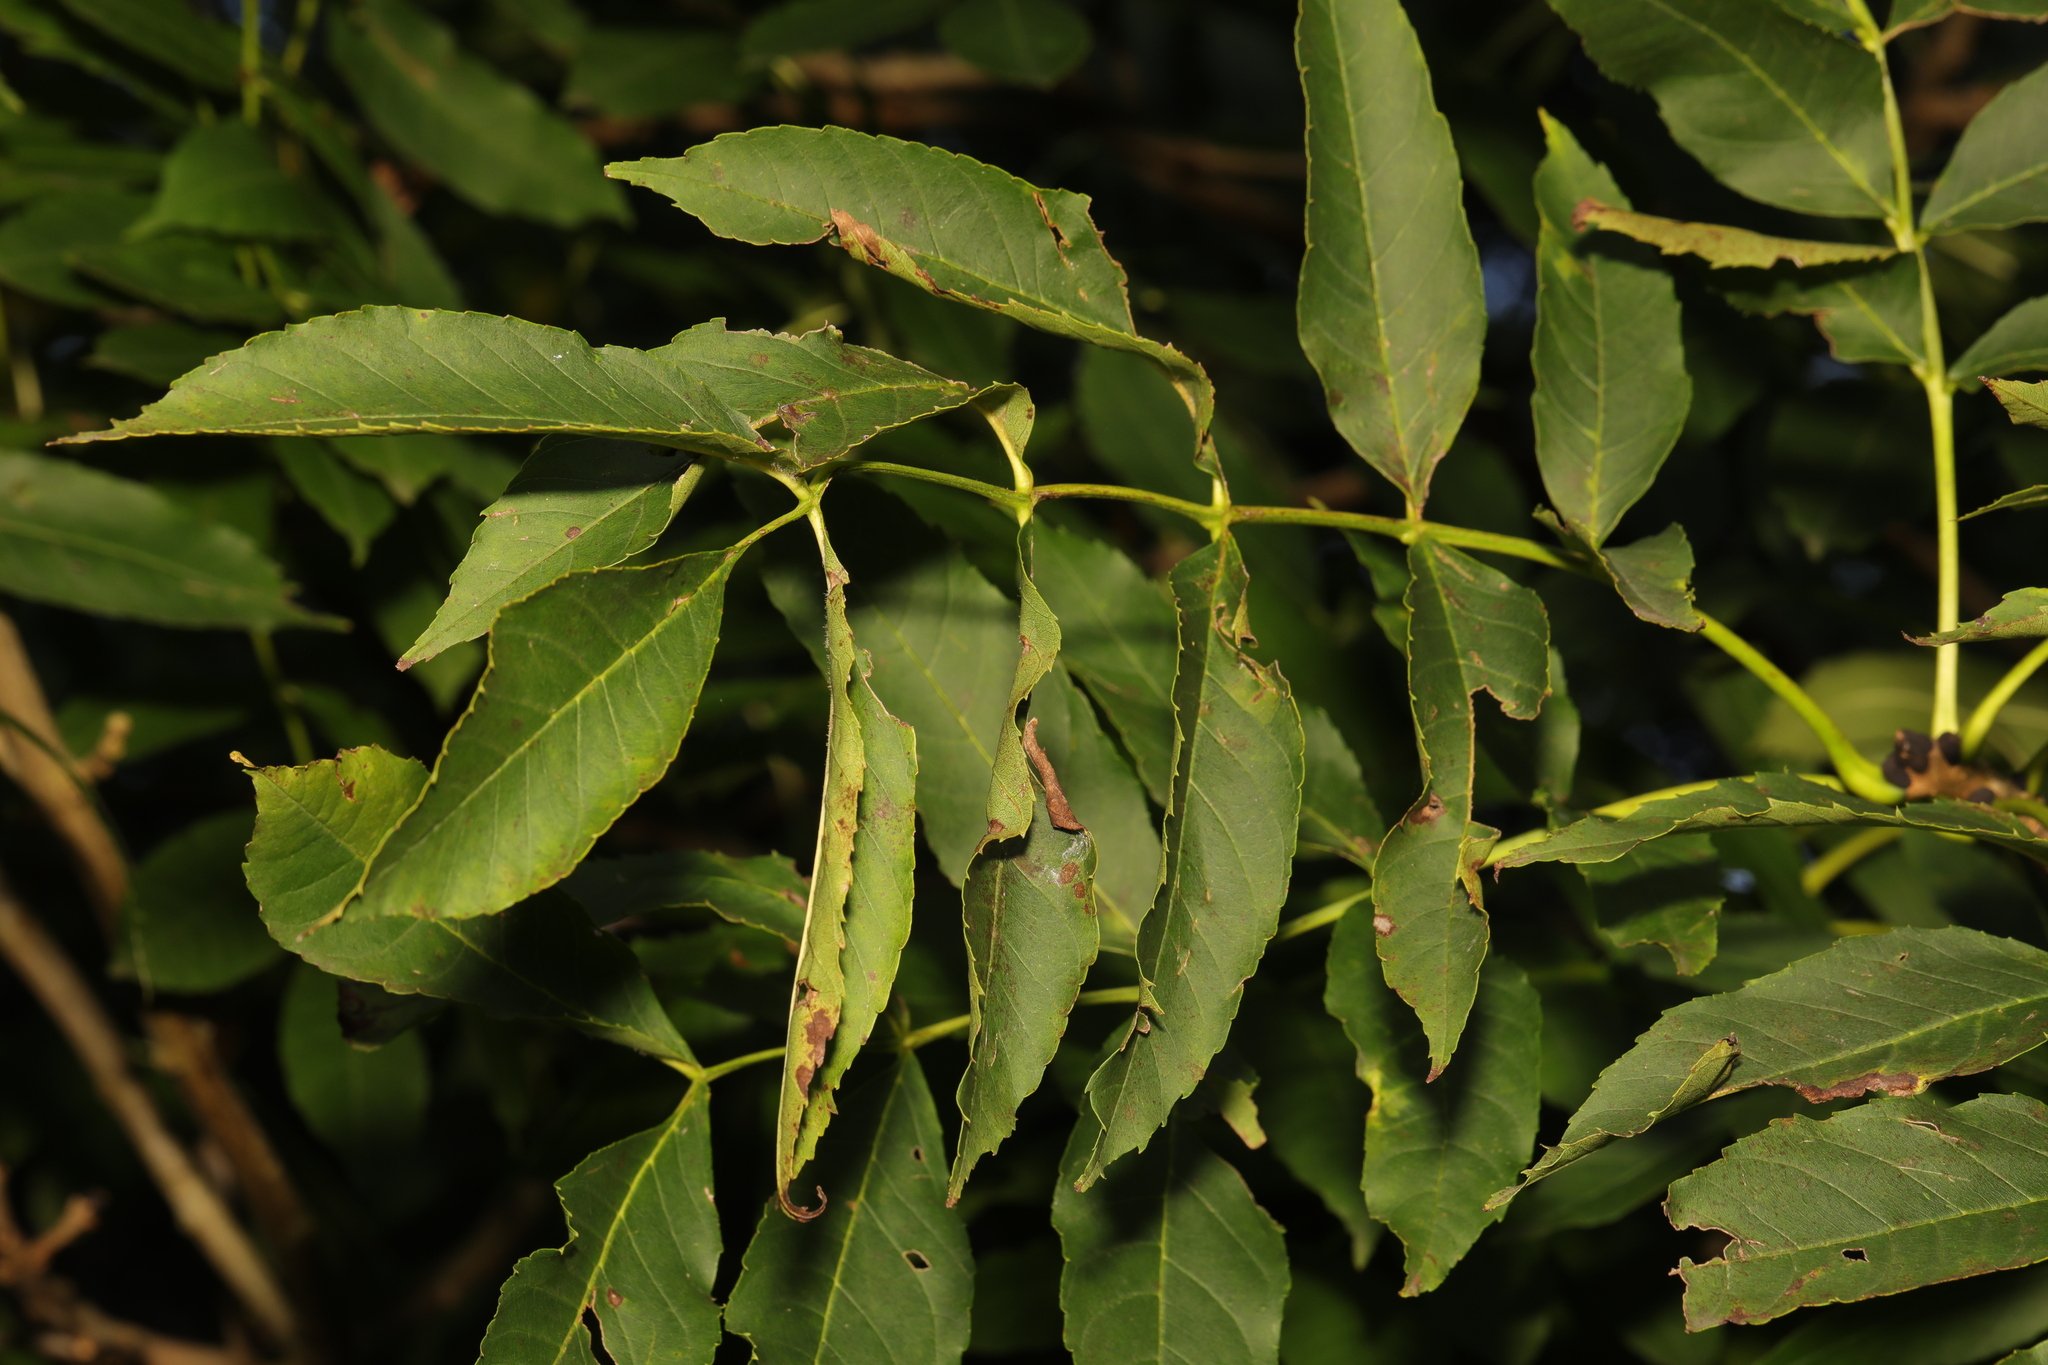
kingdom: Plantae
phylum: Tracheophyta
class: Magnoliopsida
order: Lamiales
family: Oleaceae
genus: Fraxinus
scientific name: Fraxinus excelsior
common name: European ash
